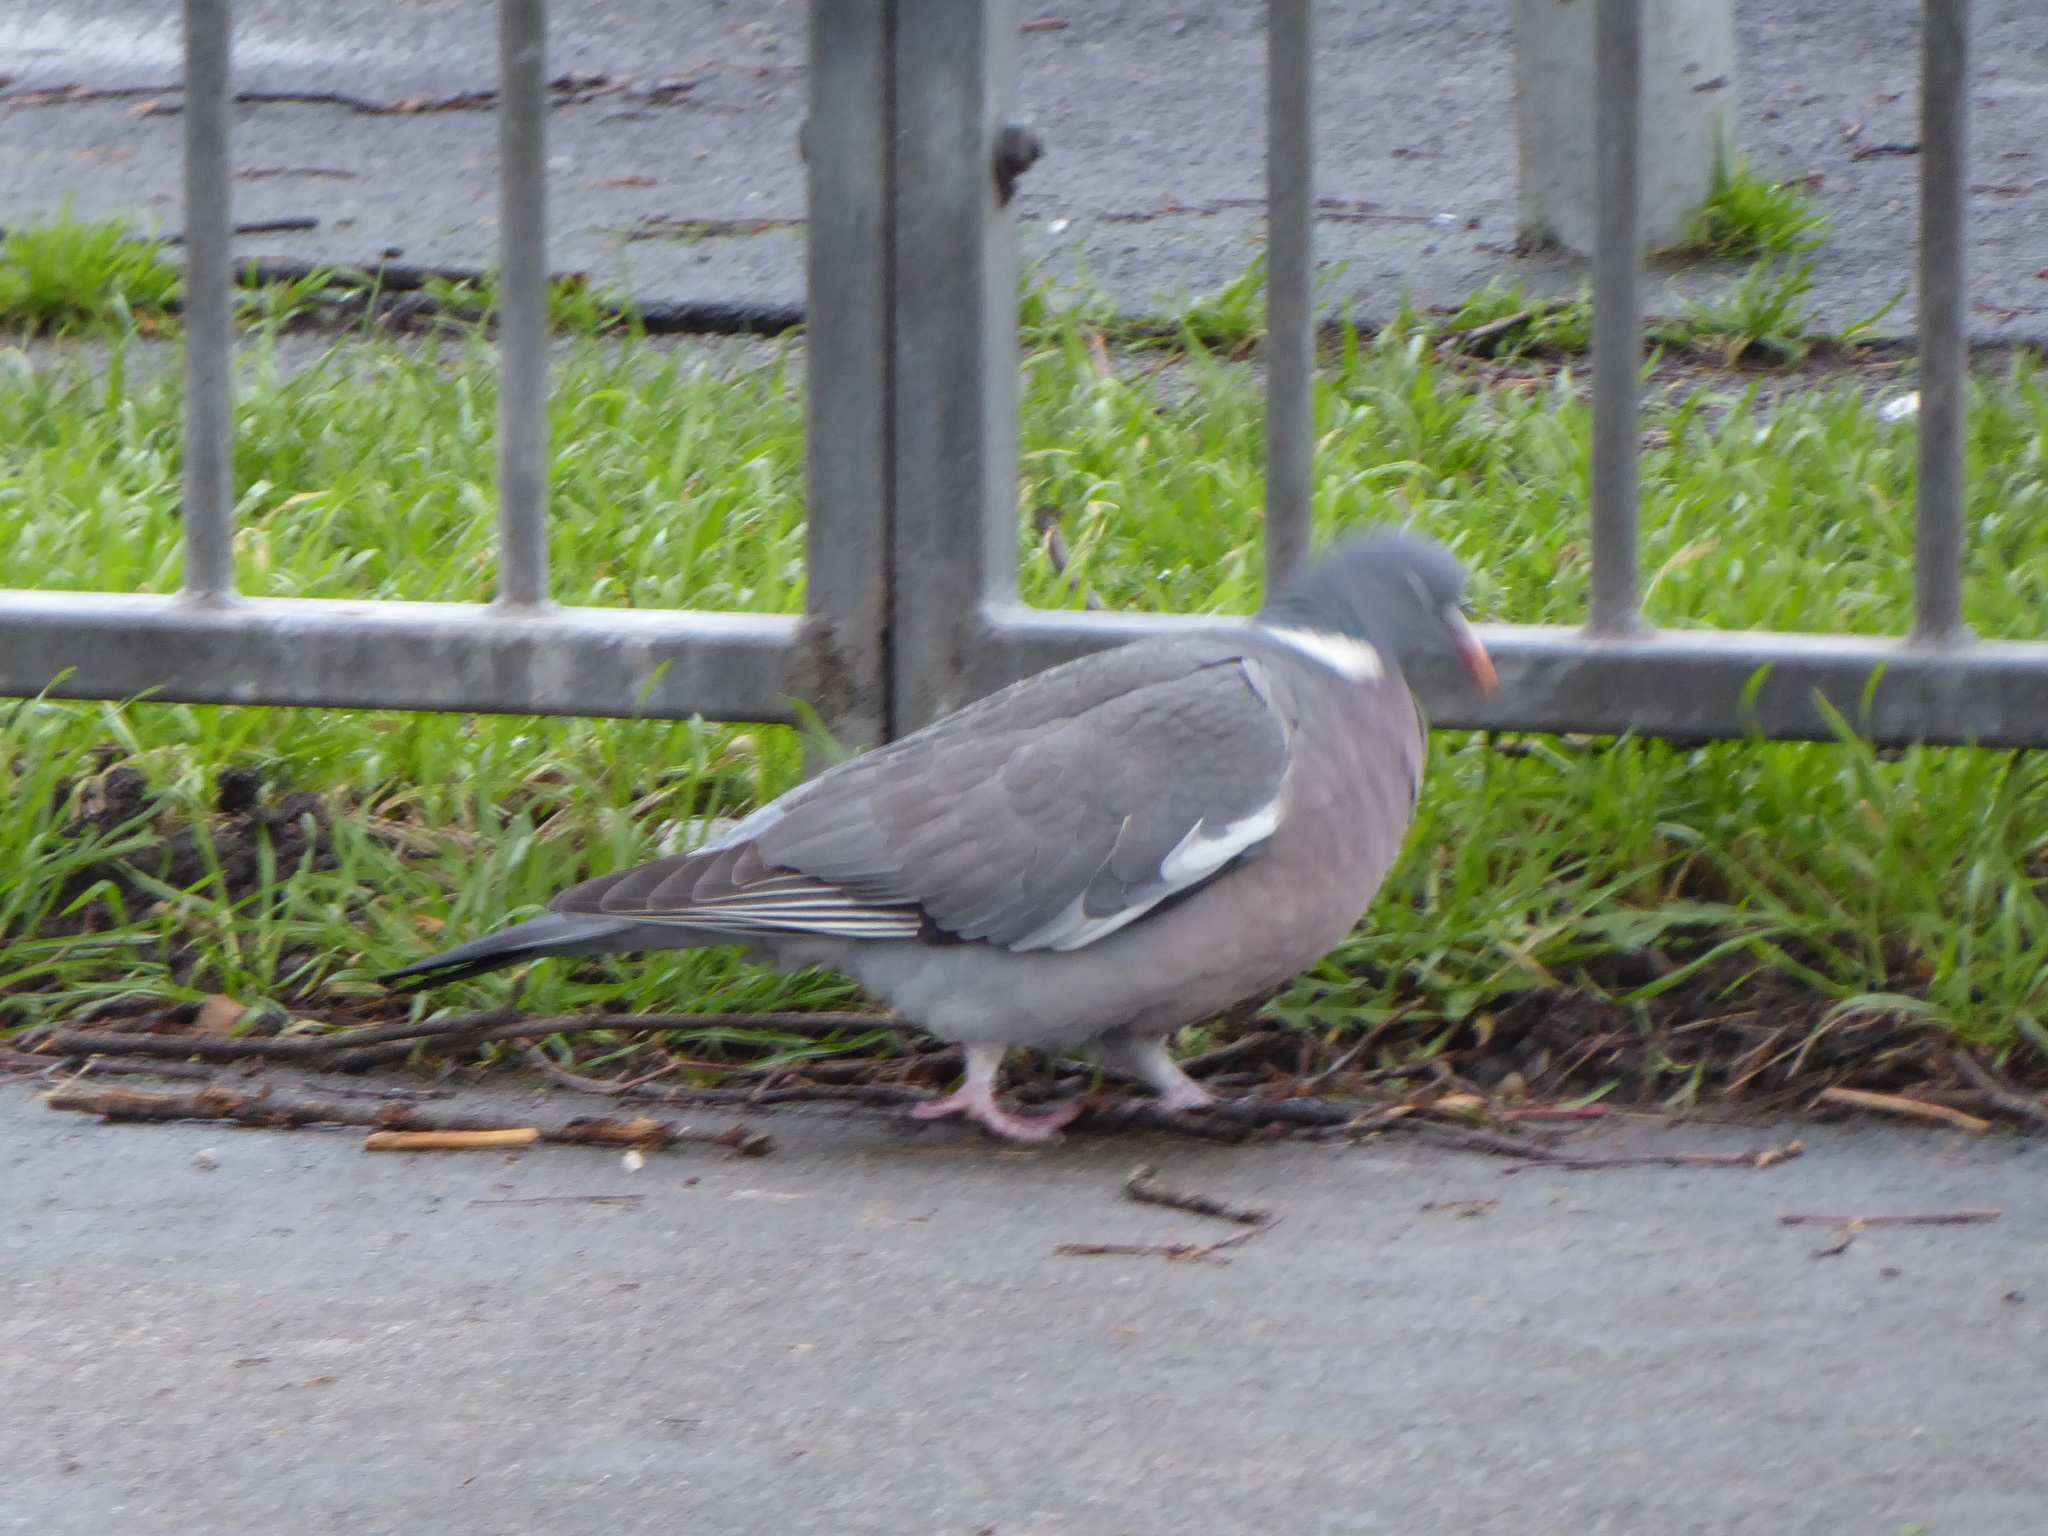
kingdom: Animalia
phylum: Chordata
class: Aves
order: Columbiformes
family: Columbidae
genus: Columba
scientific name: Columba palumbus
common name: Common wood pigeon
